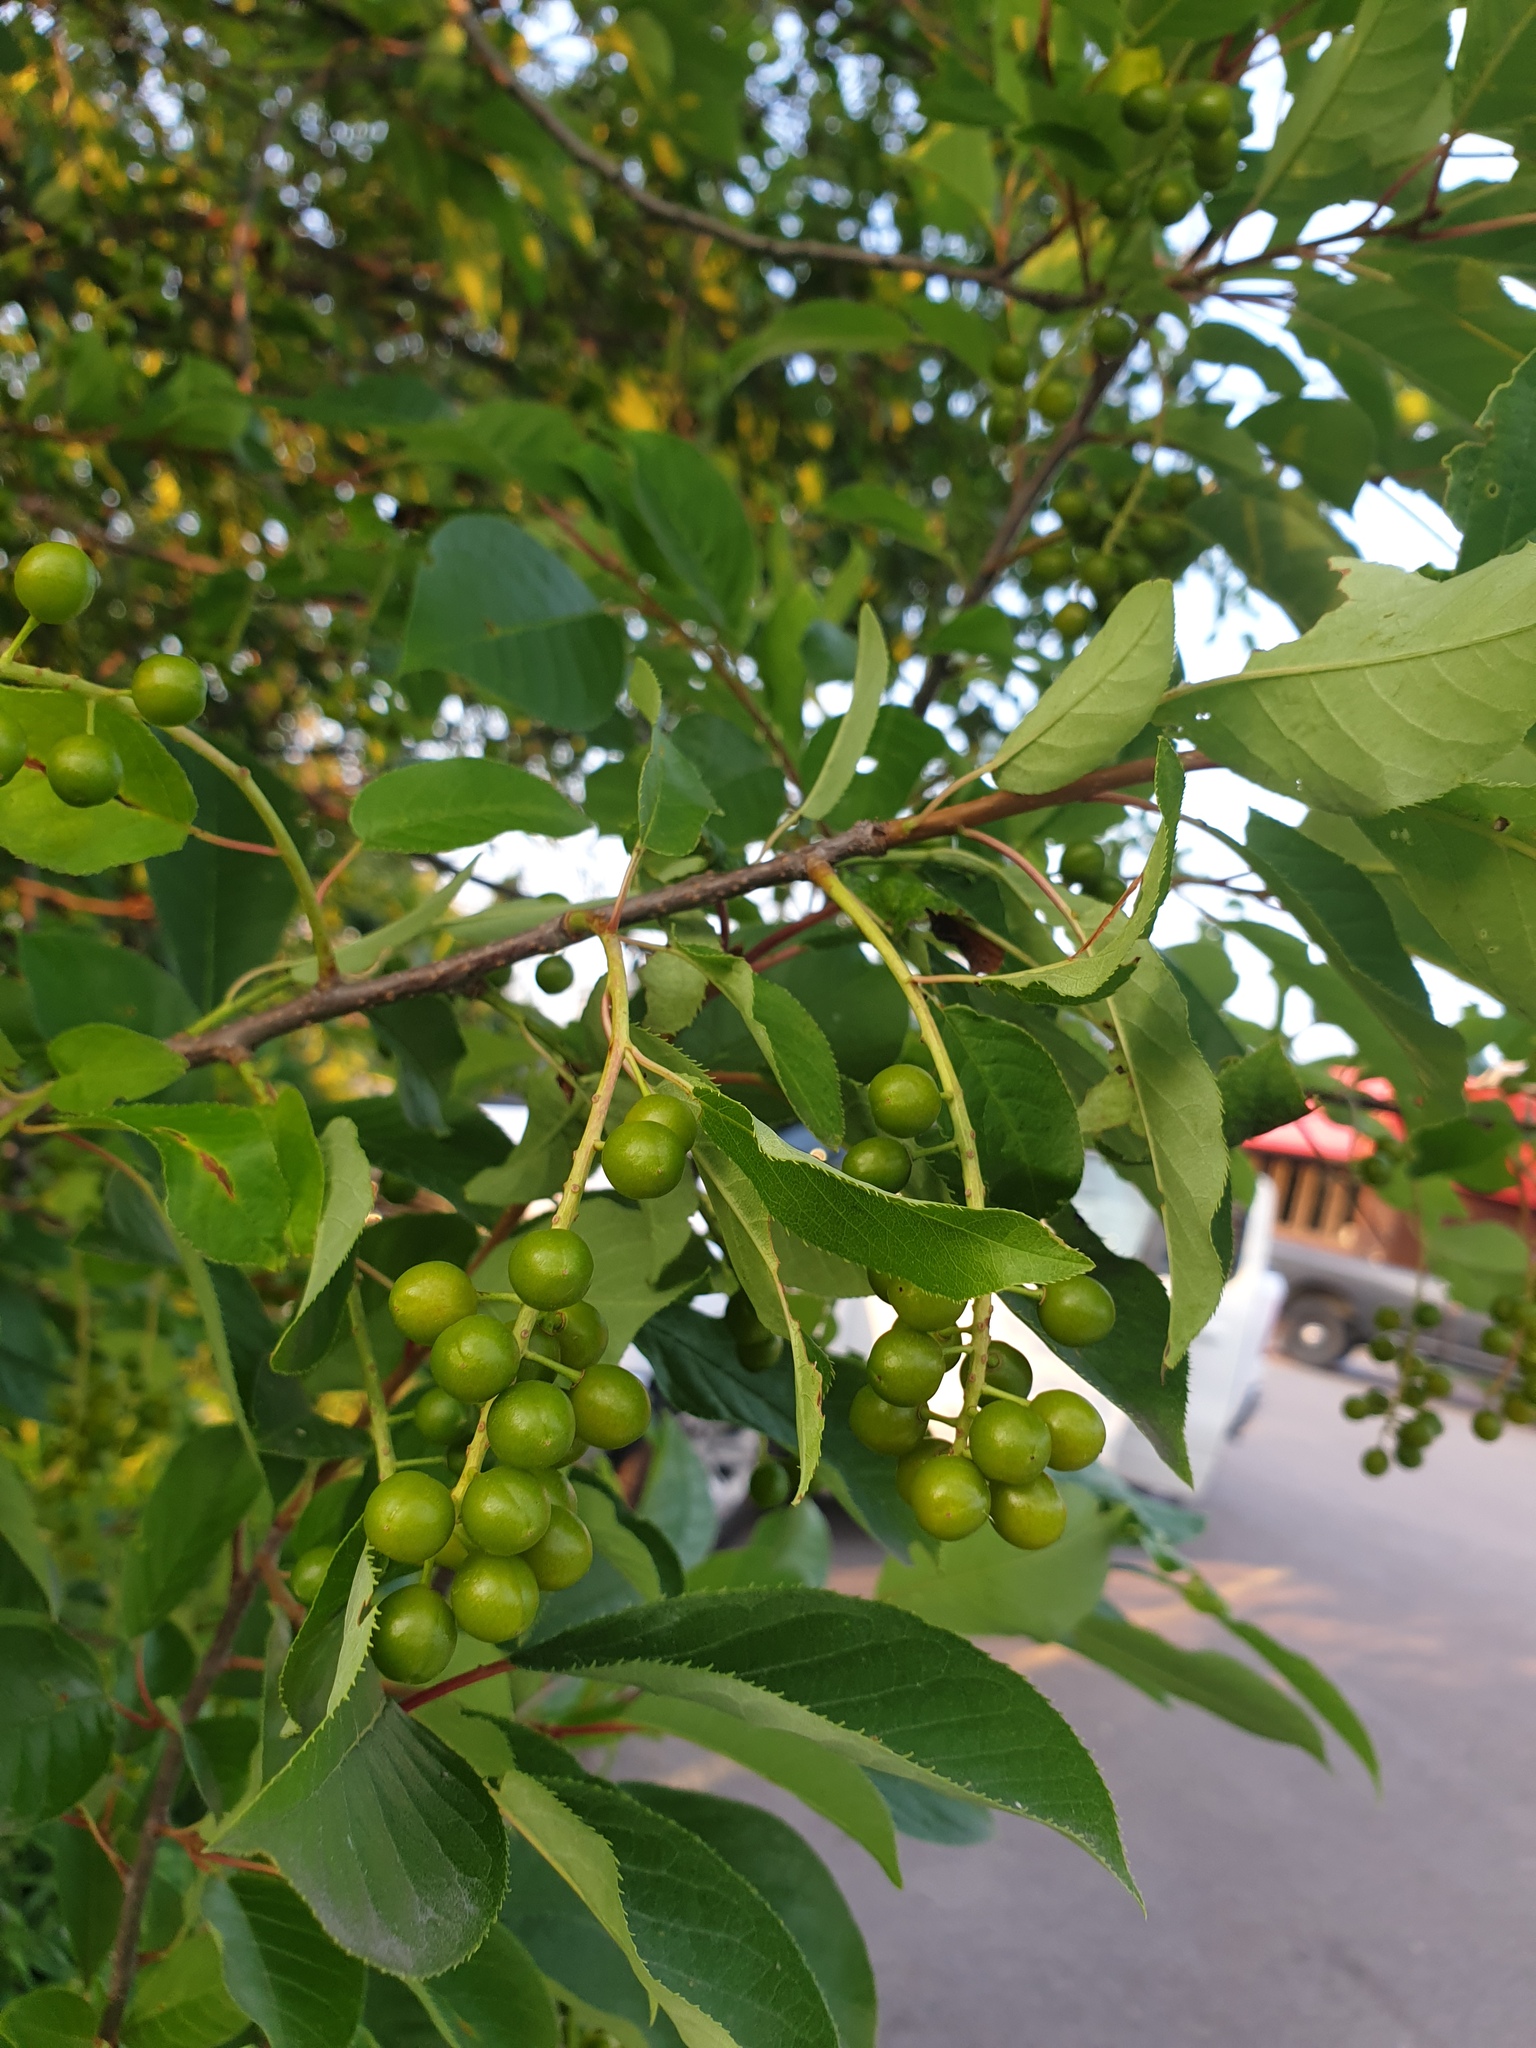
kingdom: Plantae
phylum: Tracheophyta
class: Magnoliopsida
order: Rosales
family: Rosaceae
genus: Prunus
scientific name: Prunus virginiana
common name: Chokecherry
